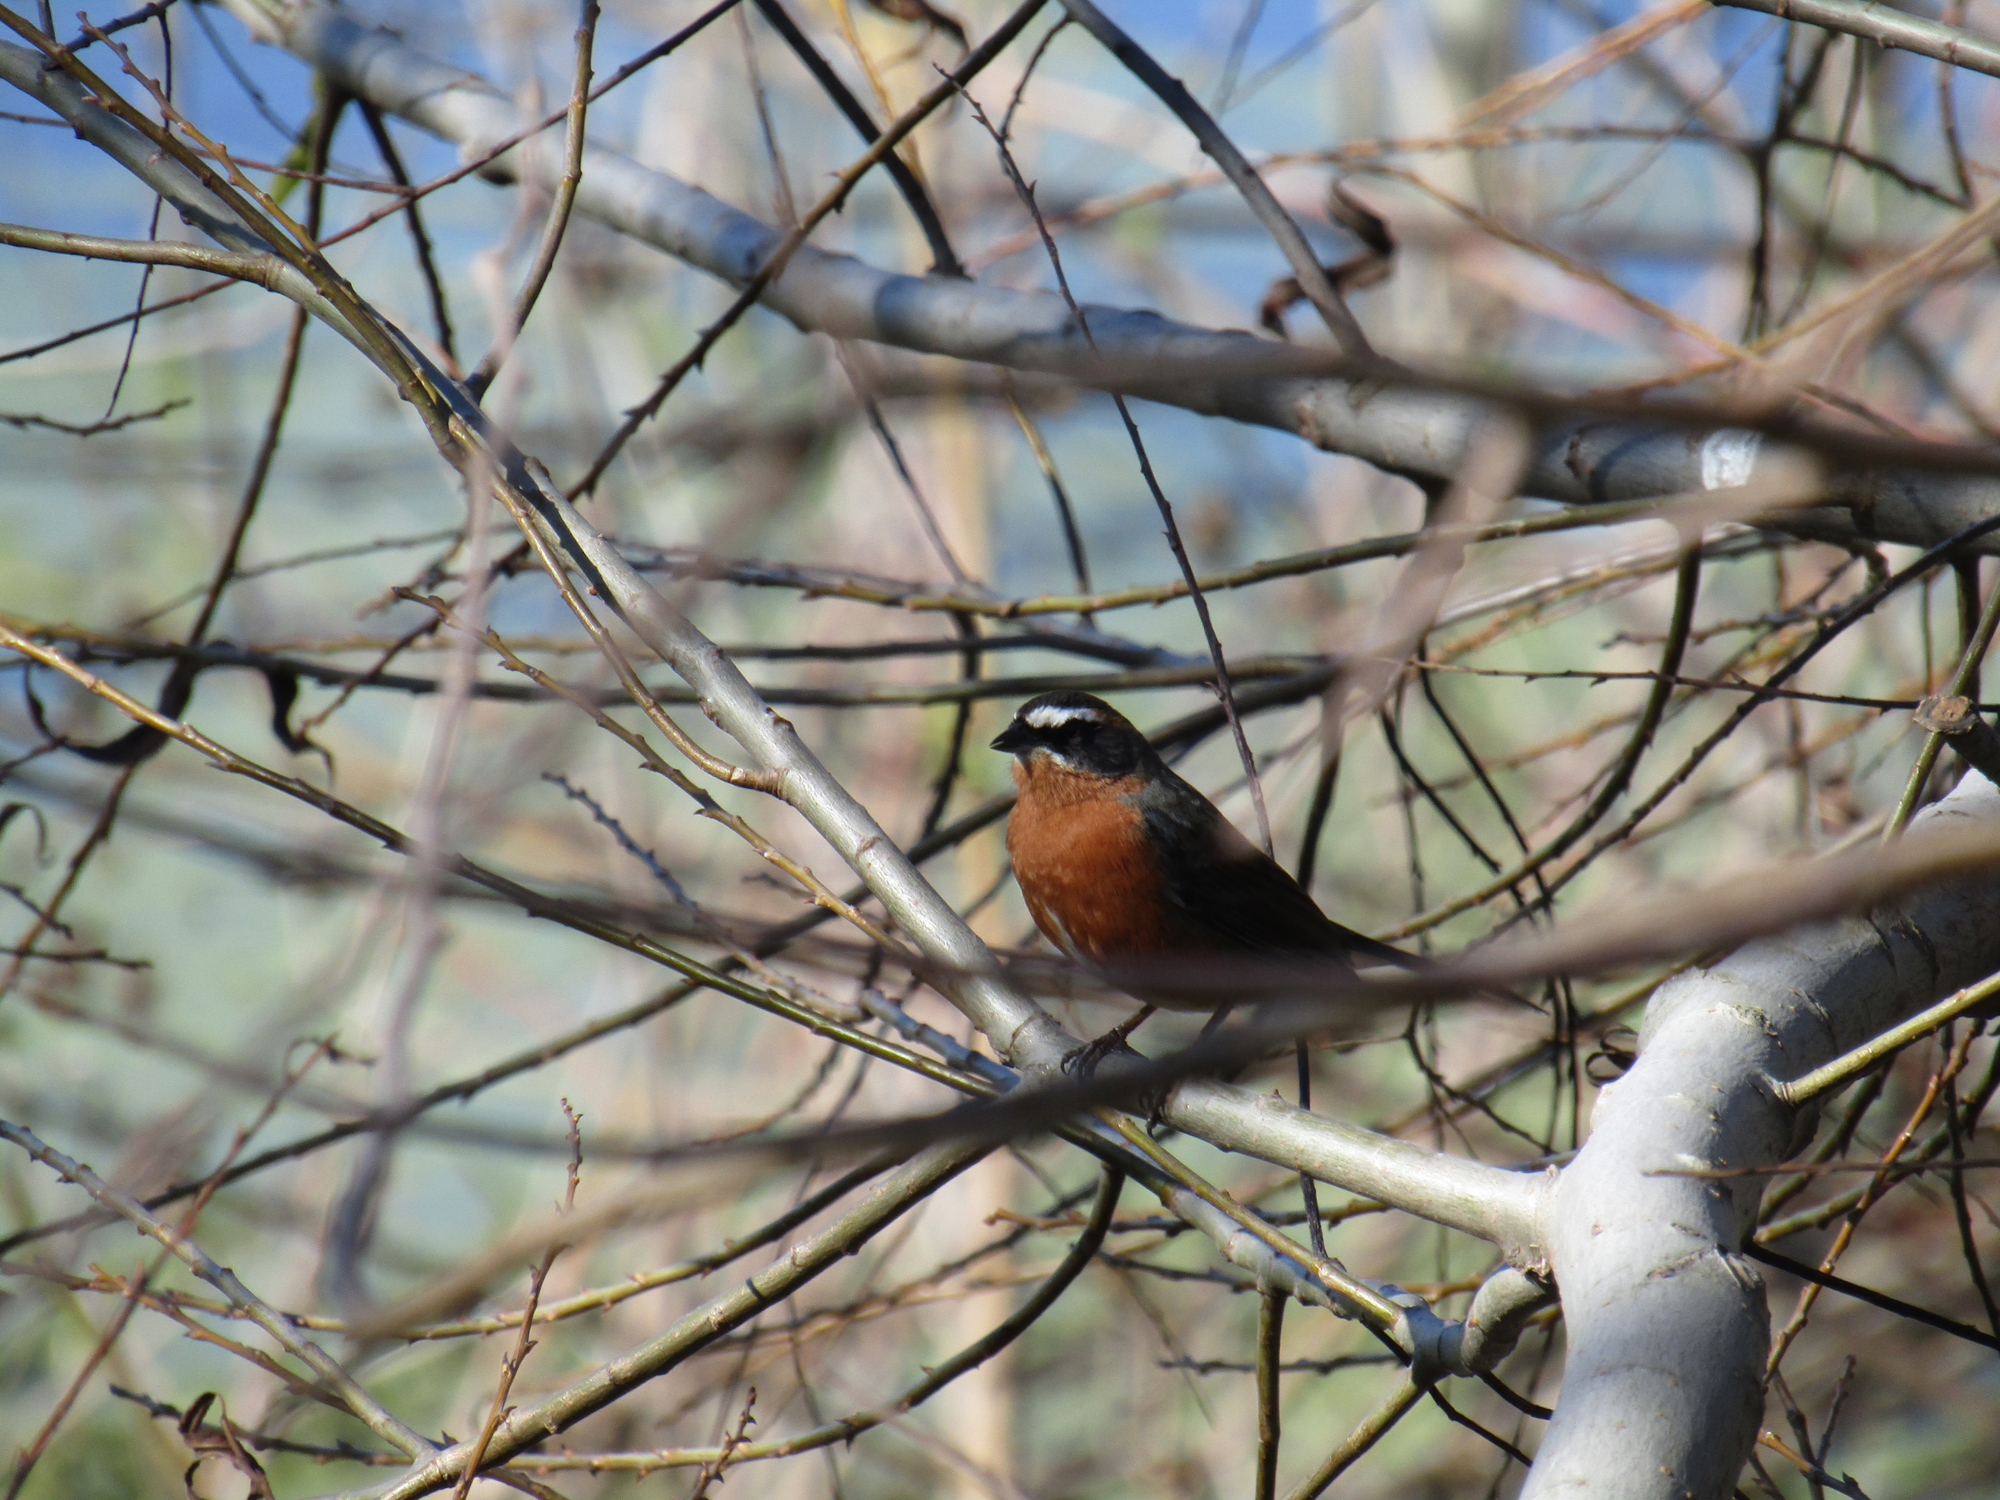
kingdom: Animalia
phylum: Chordata
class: Aves
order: Passeriformes
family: Thraupidae
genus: Poospiza
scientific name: Poospiza nigrorufa
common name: Black-and-rufous warbling finch
